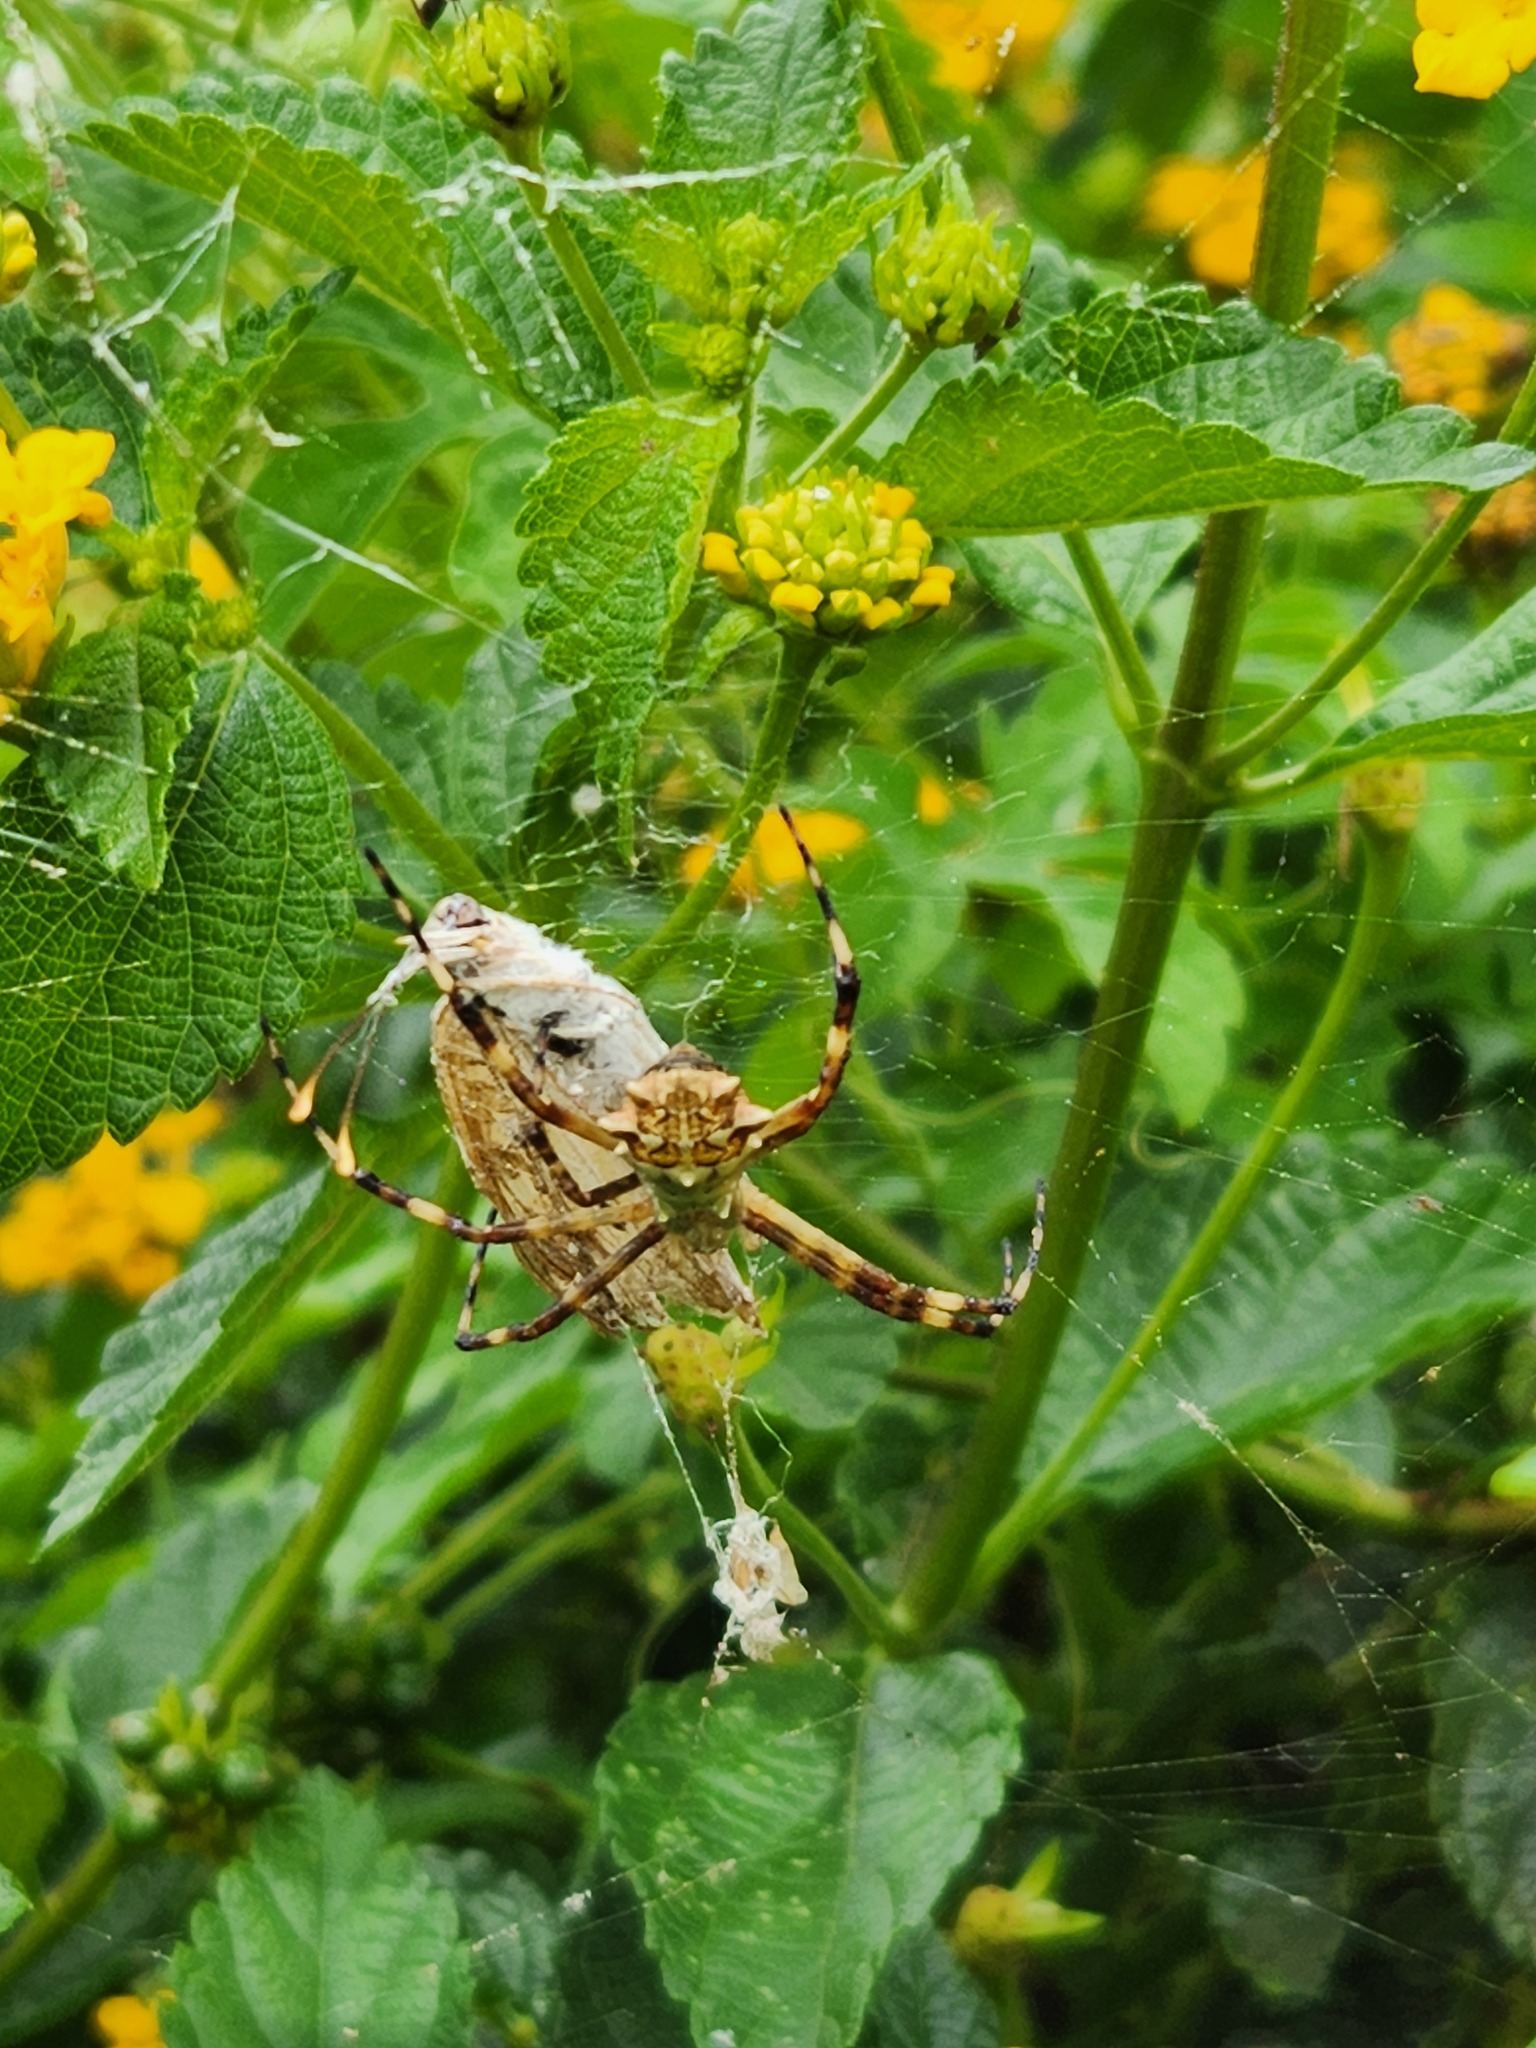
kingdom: Animalia
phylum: Arthropoda
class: Arachnida
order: Araneae
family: Araneidae
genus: Argiope
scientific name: Argiope argentata
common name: Orb weavers
